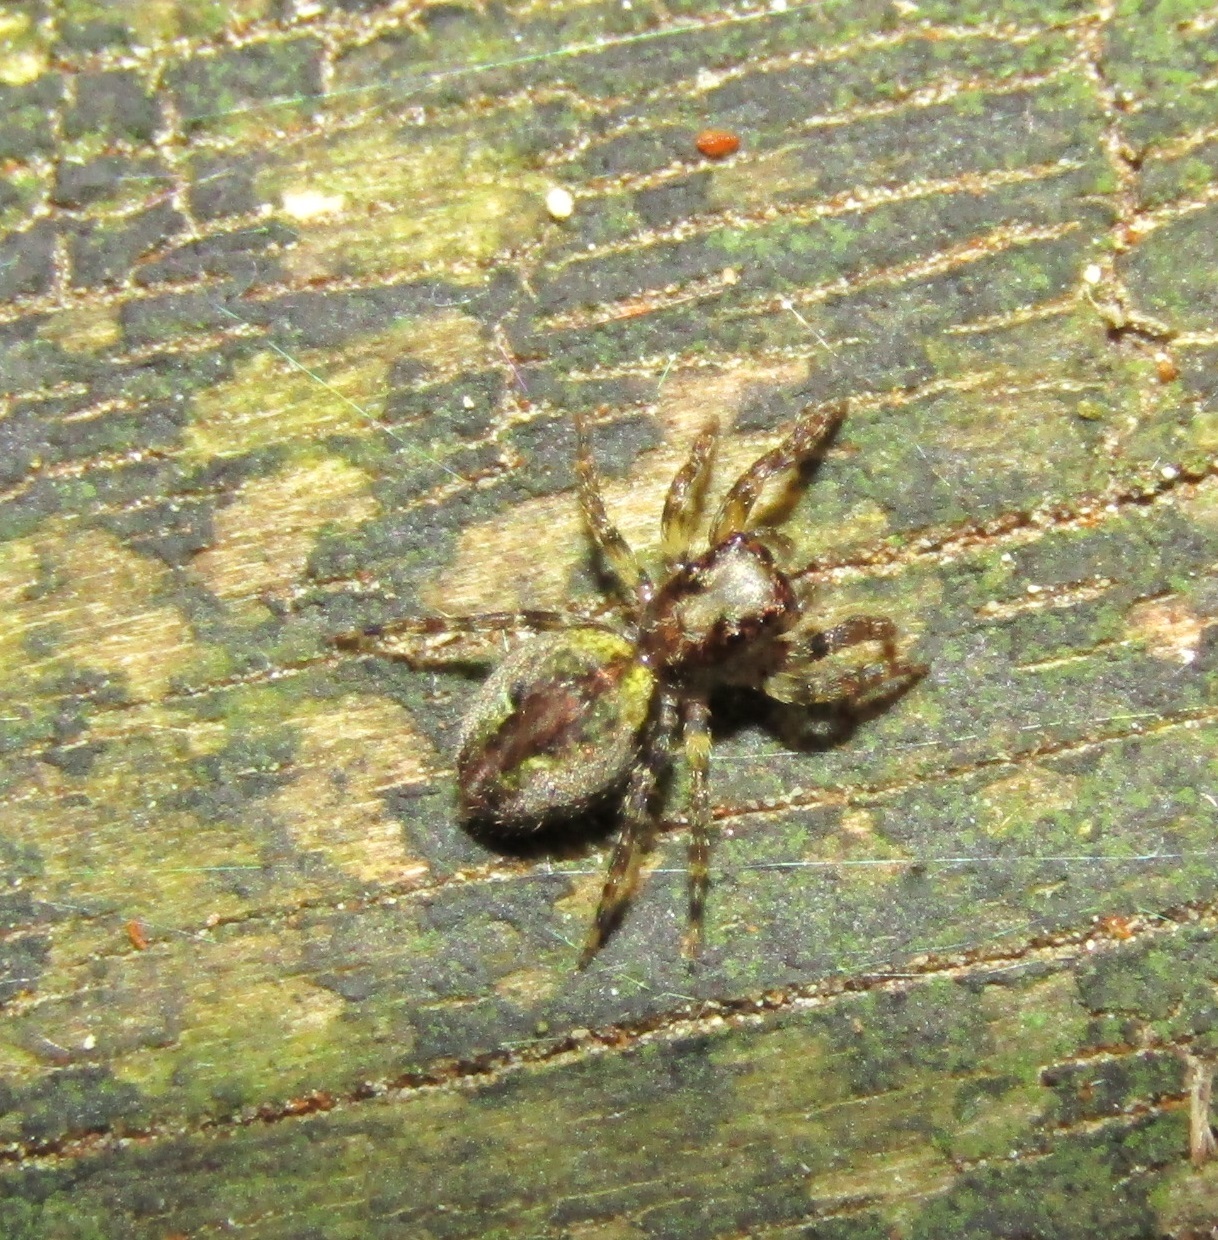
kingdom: Animalia
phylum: Arthropoda
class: Arachnida
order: Araneae
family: Salticidae
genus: Hinewaia
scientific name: Hinewaia embolica
